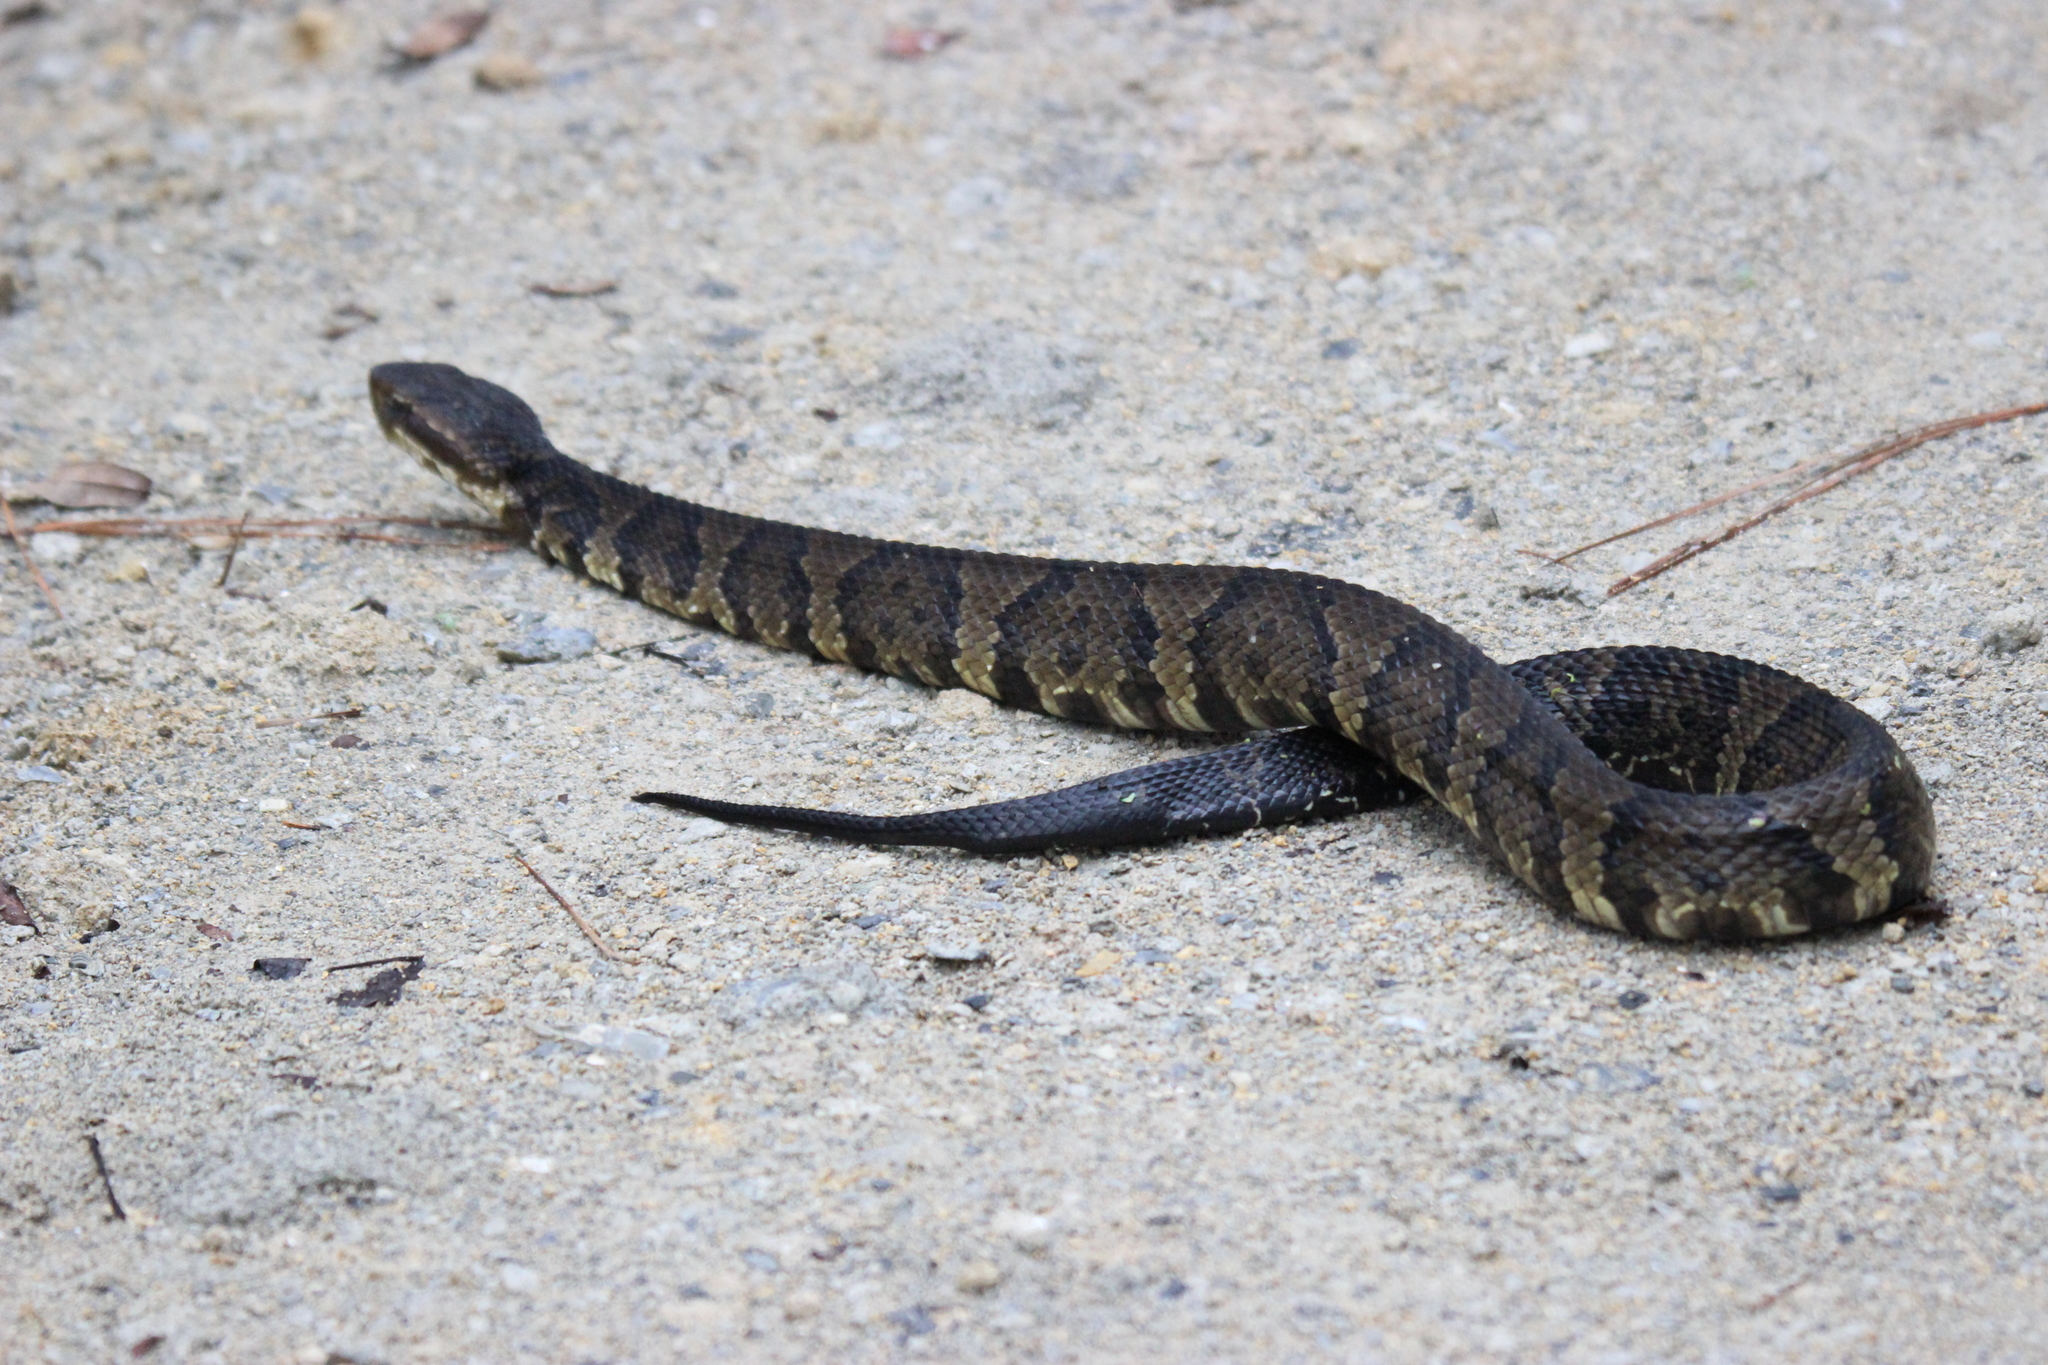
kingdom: Animalia
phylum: Chordata
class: Squamata
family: Viperidae
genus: Agkistrodon
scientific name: Agkistrodon piscivorus
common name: Cottonmouth
